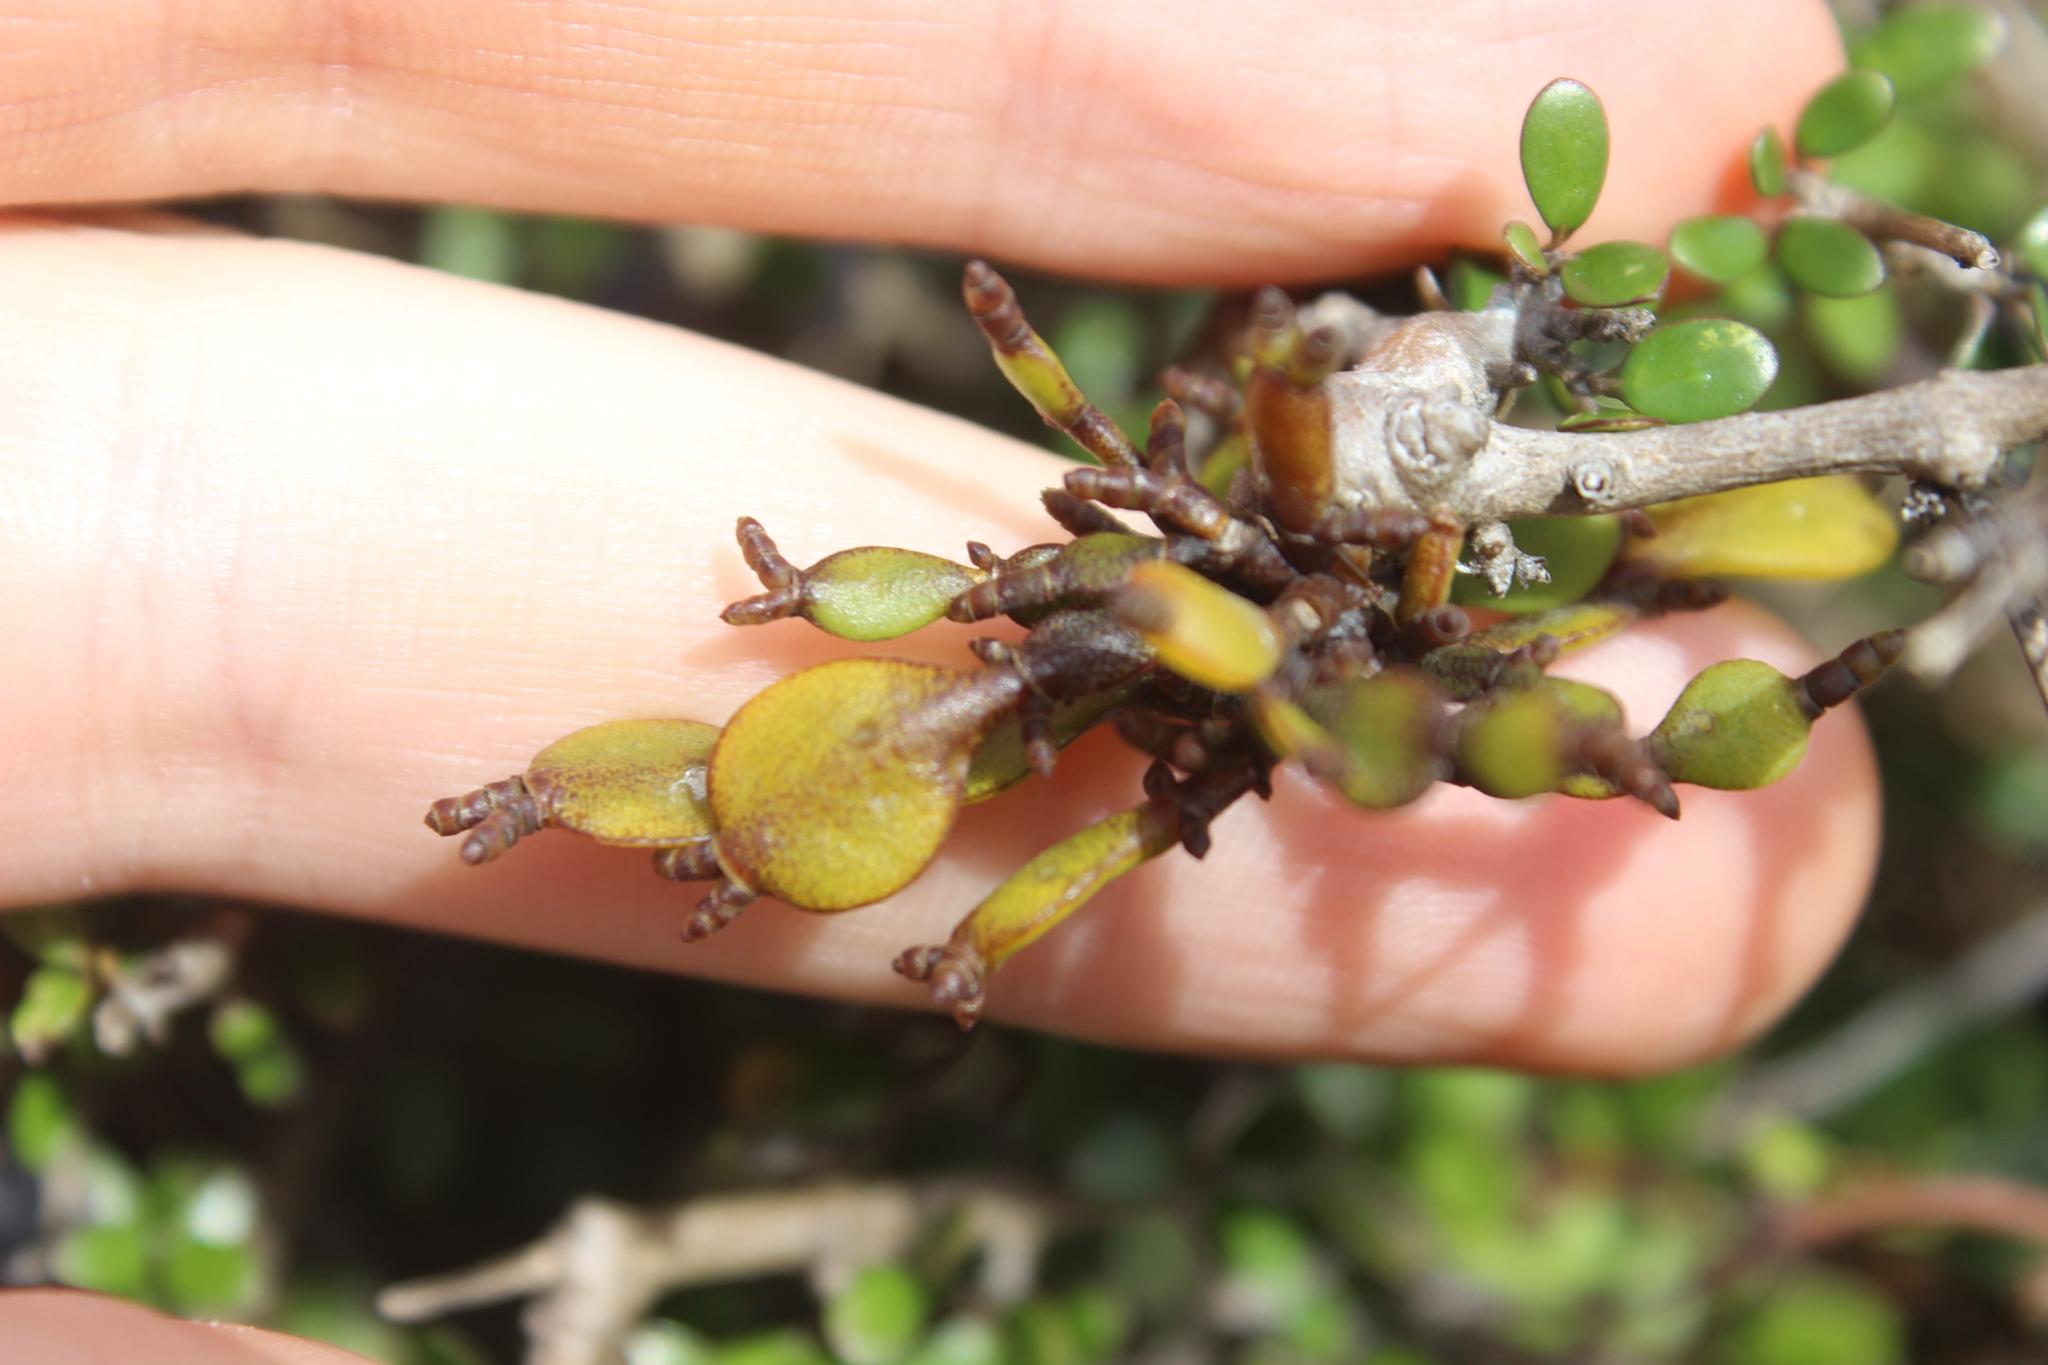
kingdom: Plantae
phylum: Tracheophyta
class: Magnoliopsida
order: Santalales
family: Viscaceae
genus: Korthalsella
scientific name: Korthalsella lindsayi
